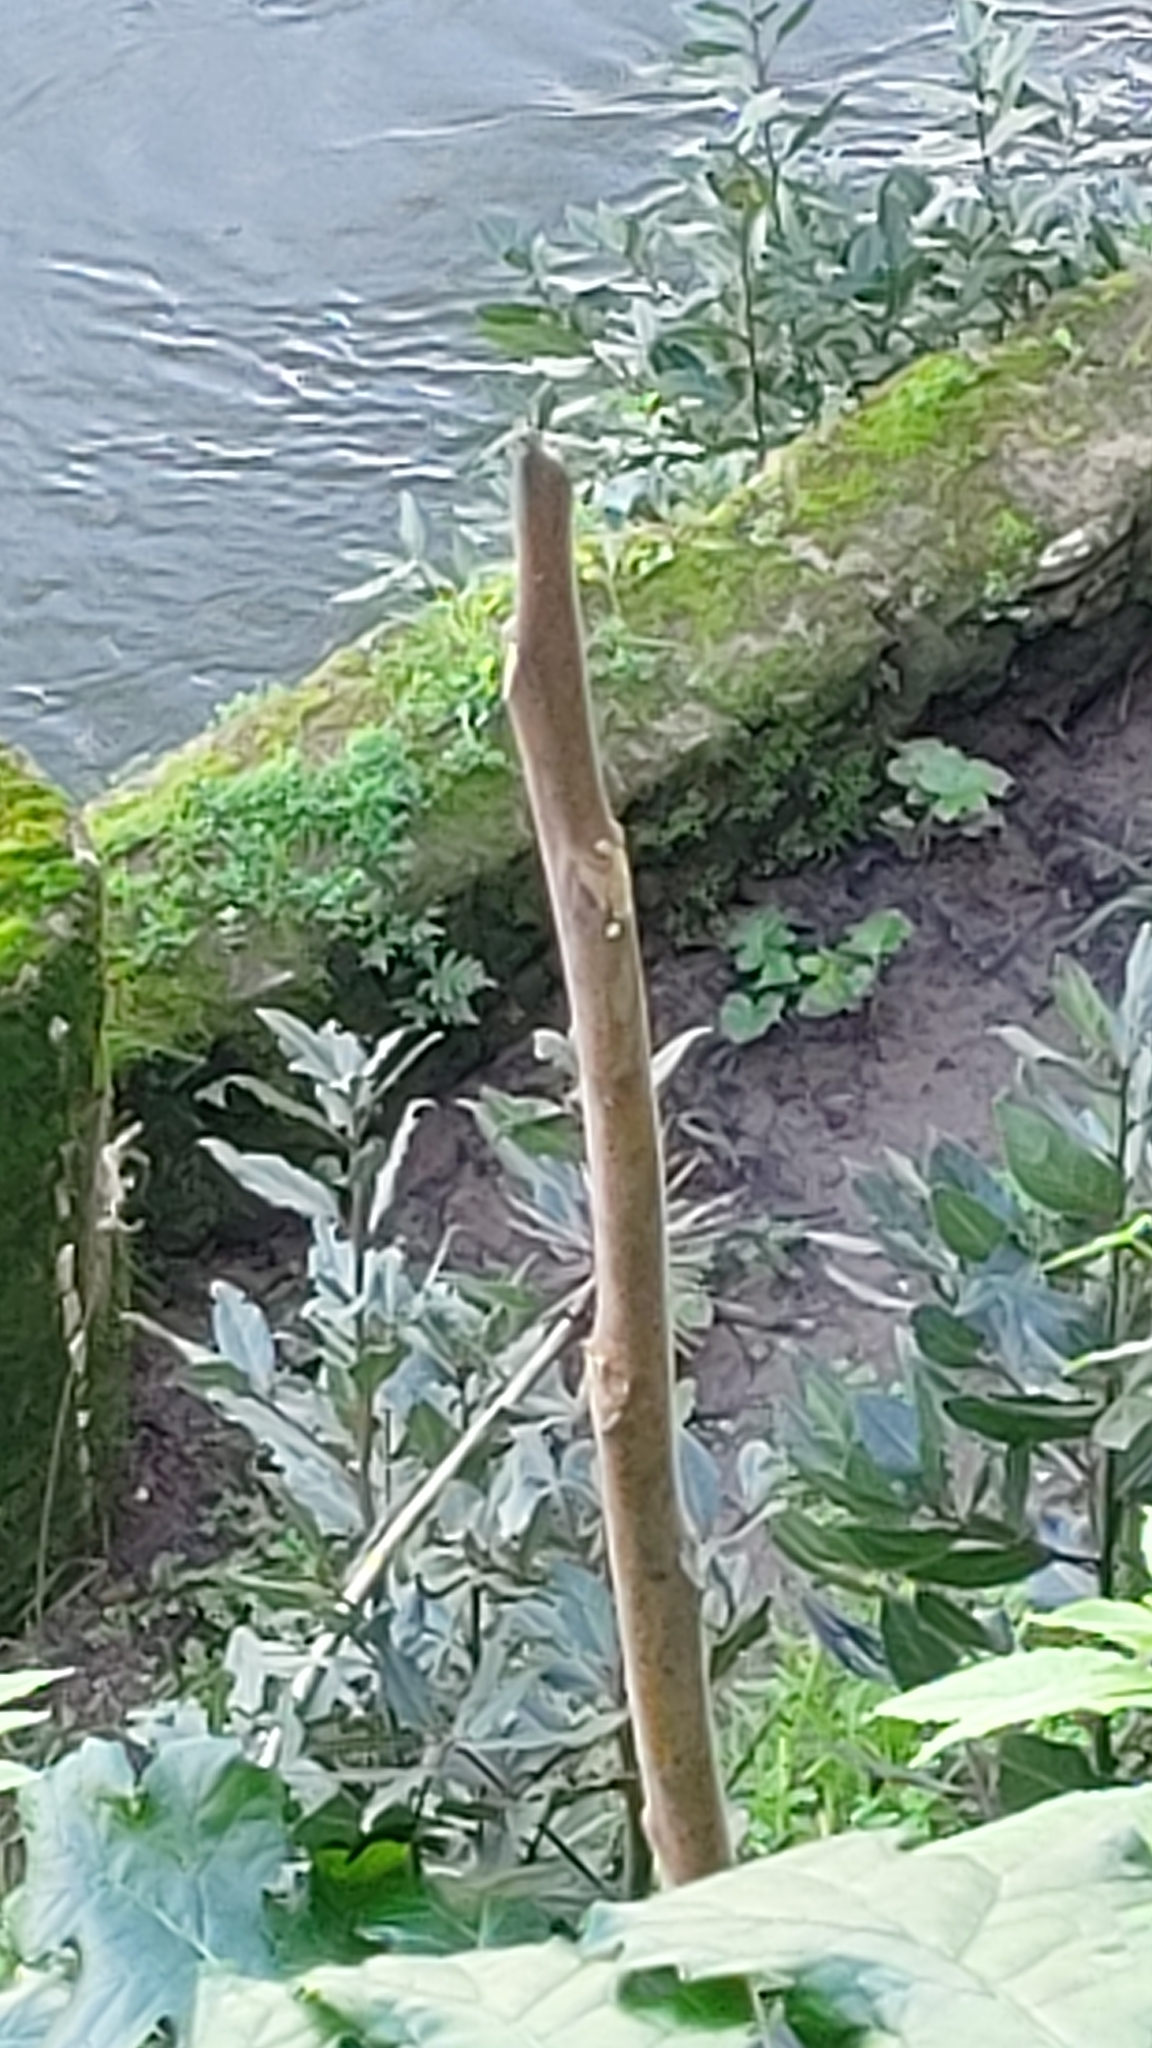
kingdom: Plantae
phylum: Tracheophyta
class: Magnoliopsida
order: Sapindales
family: Simaroubaceae
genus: Ailanthus
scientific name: Ailanthus altissima
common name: Tree-of-heaven
